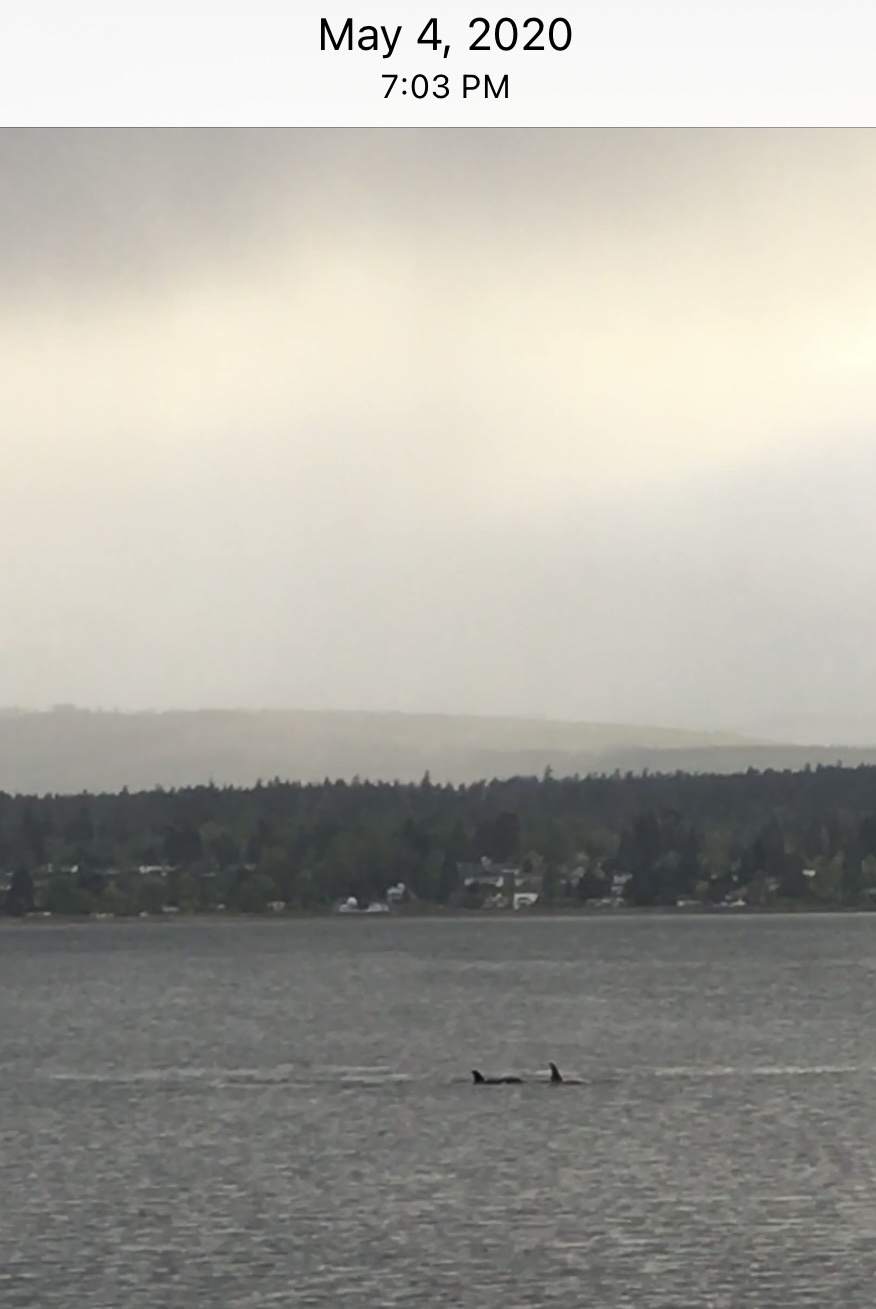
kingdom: Animalia
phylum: Chordata
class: Mammalia
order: Cetacea
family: Delphinidae
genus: Orcinus
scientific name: Orcinus orca
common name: Killer whale
